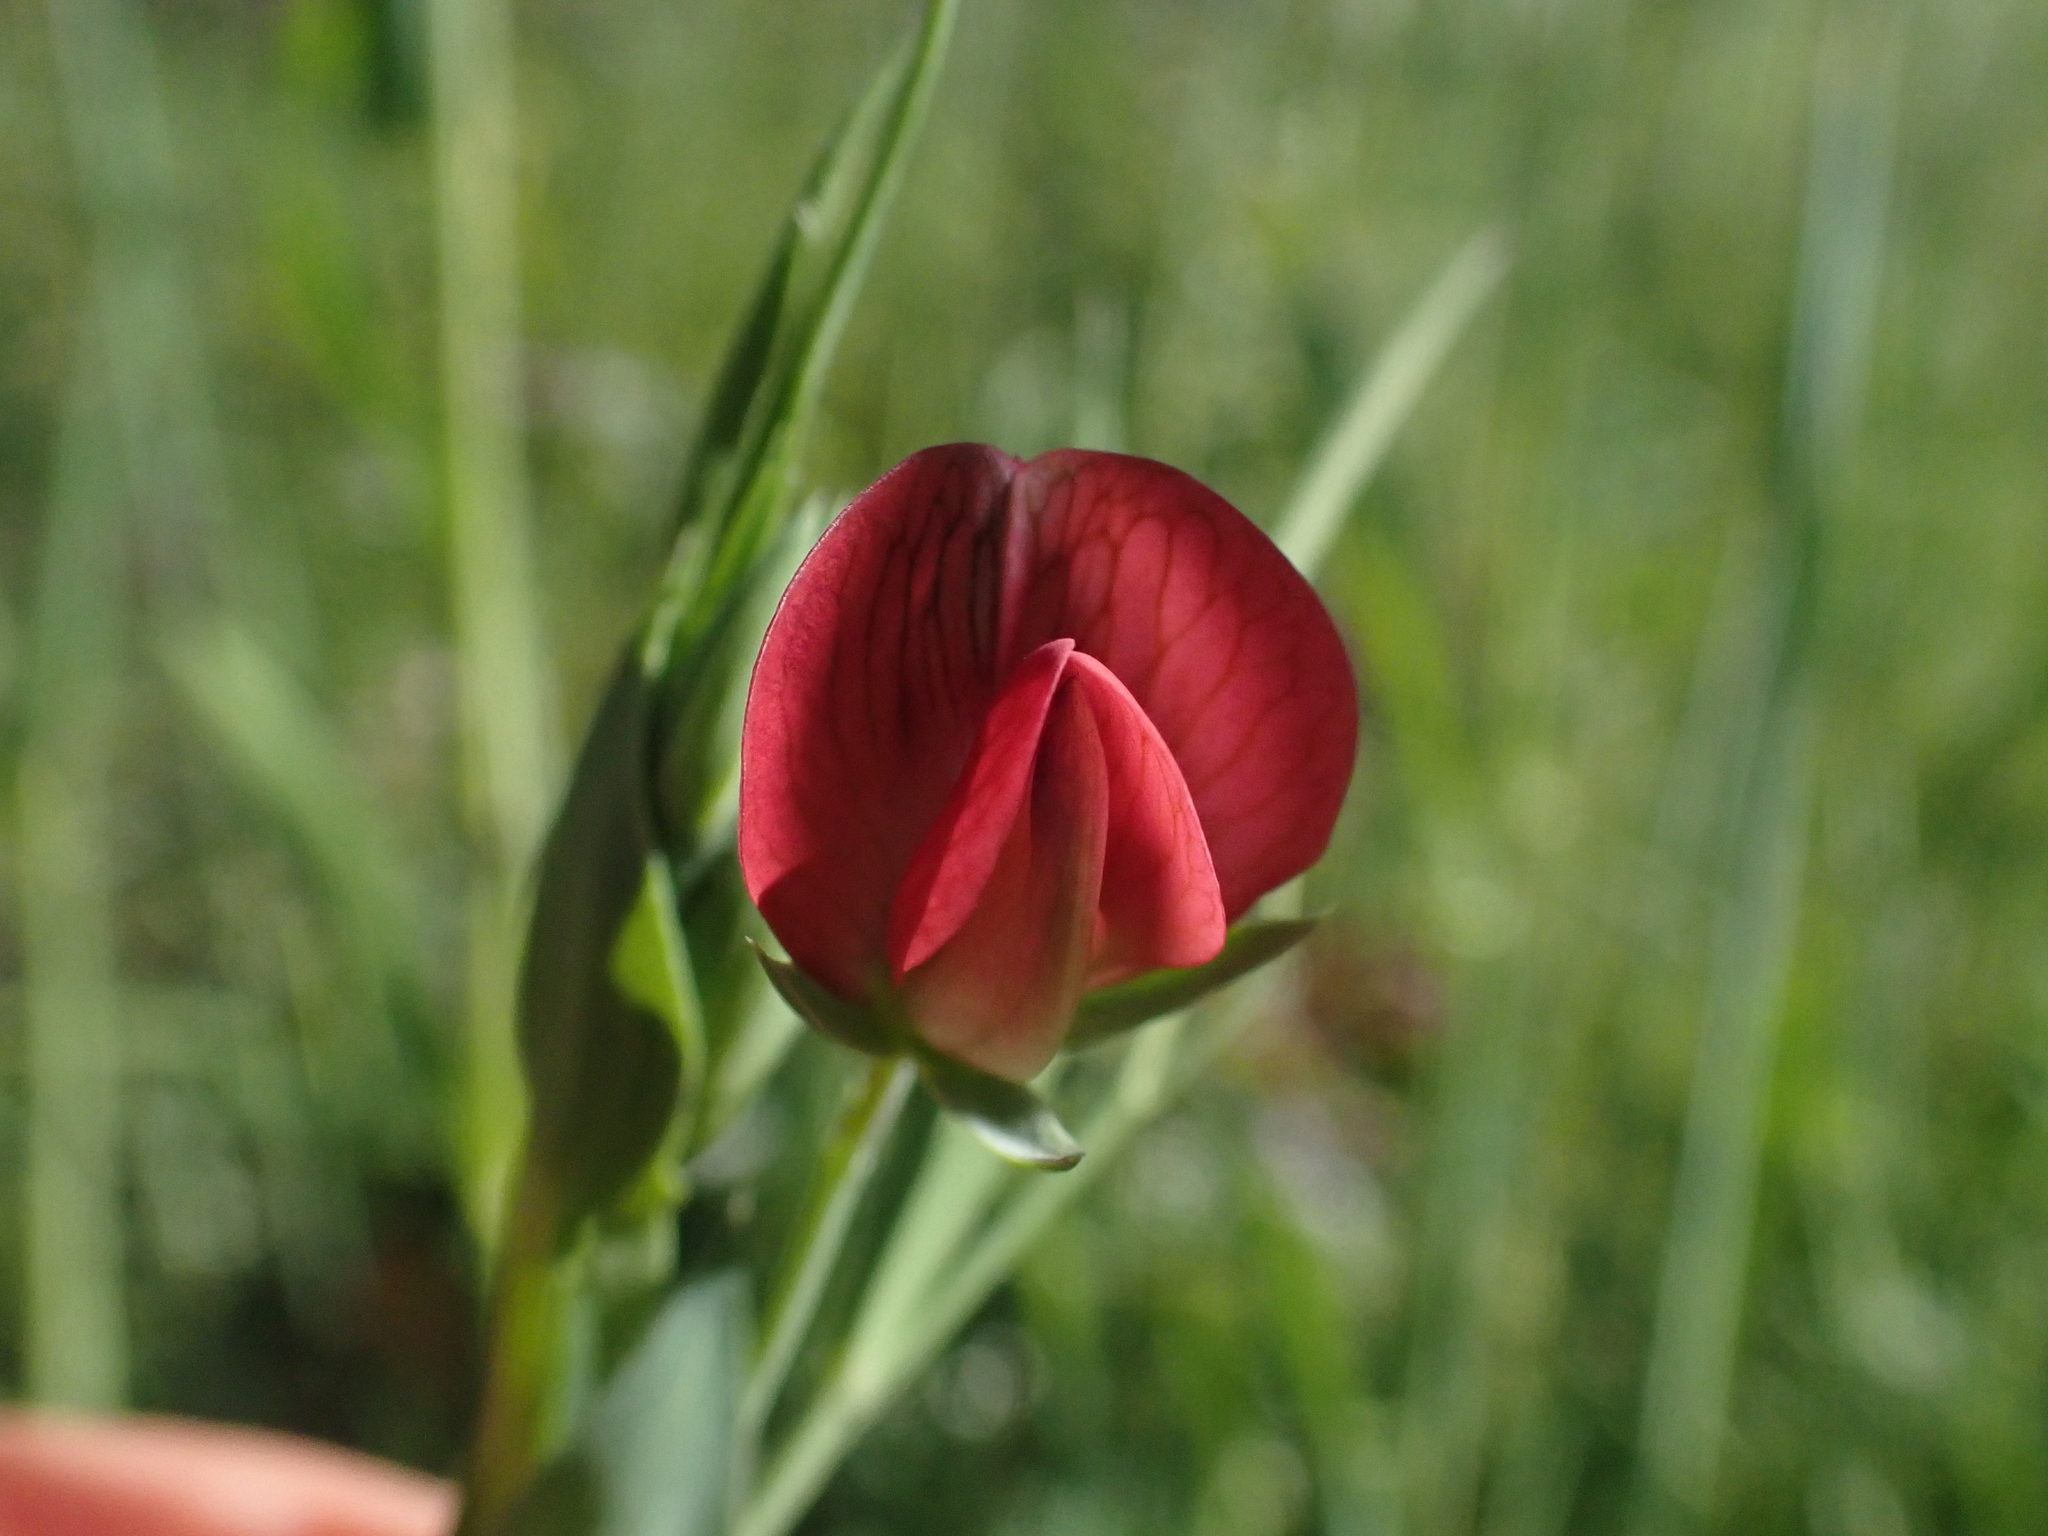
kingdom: Plantae
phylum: Tracheophyta
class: Magnoliopsida
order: Fabales
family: Fabaceae
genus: Lathyrus
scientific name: Lathyrus cicera
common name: Red vetchling
